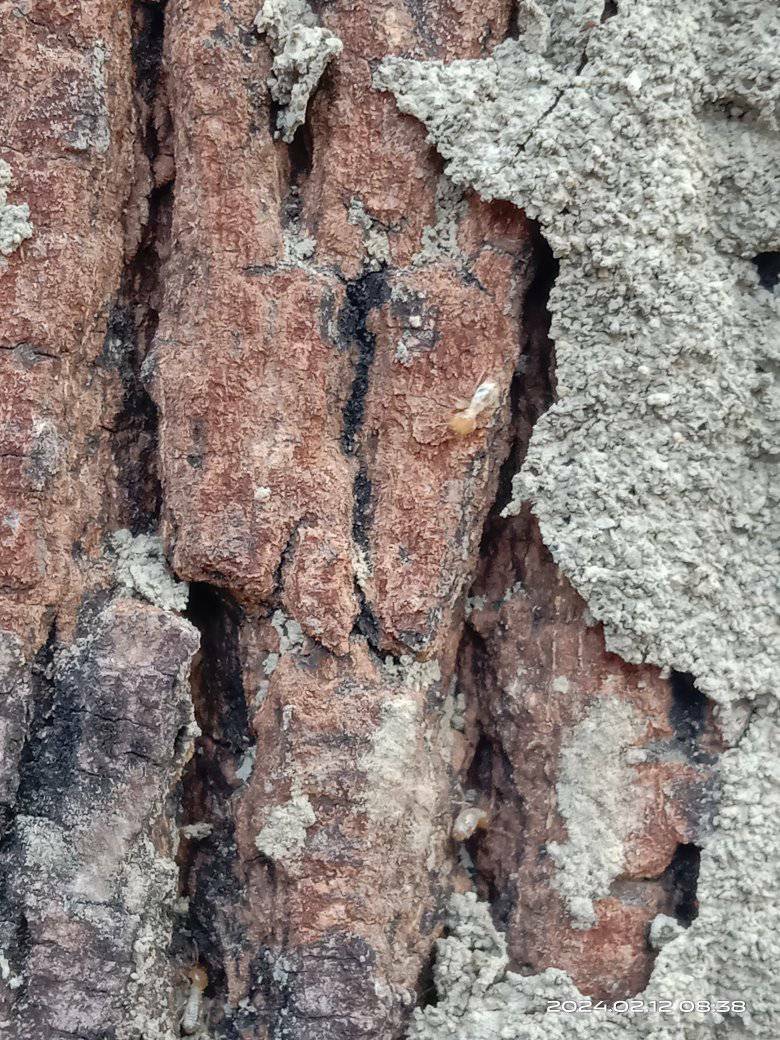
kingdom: Animalia
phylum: Arthropoda
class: Insecta
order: Blattodea
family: Termitidae
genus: Odontotermes
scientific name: Odontotermes formosanus
